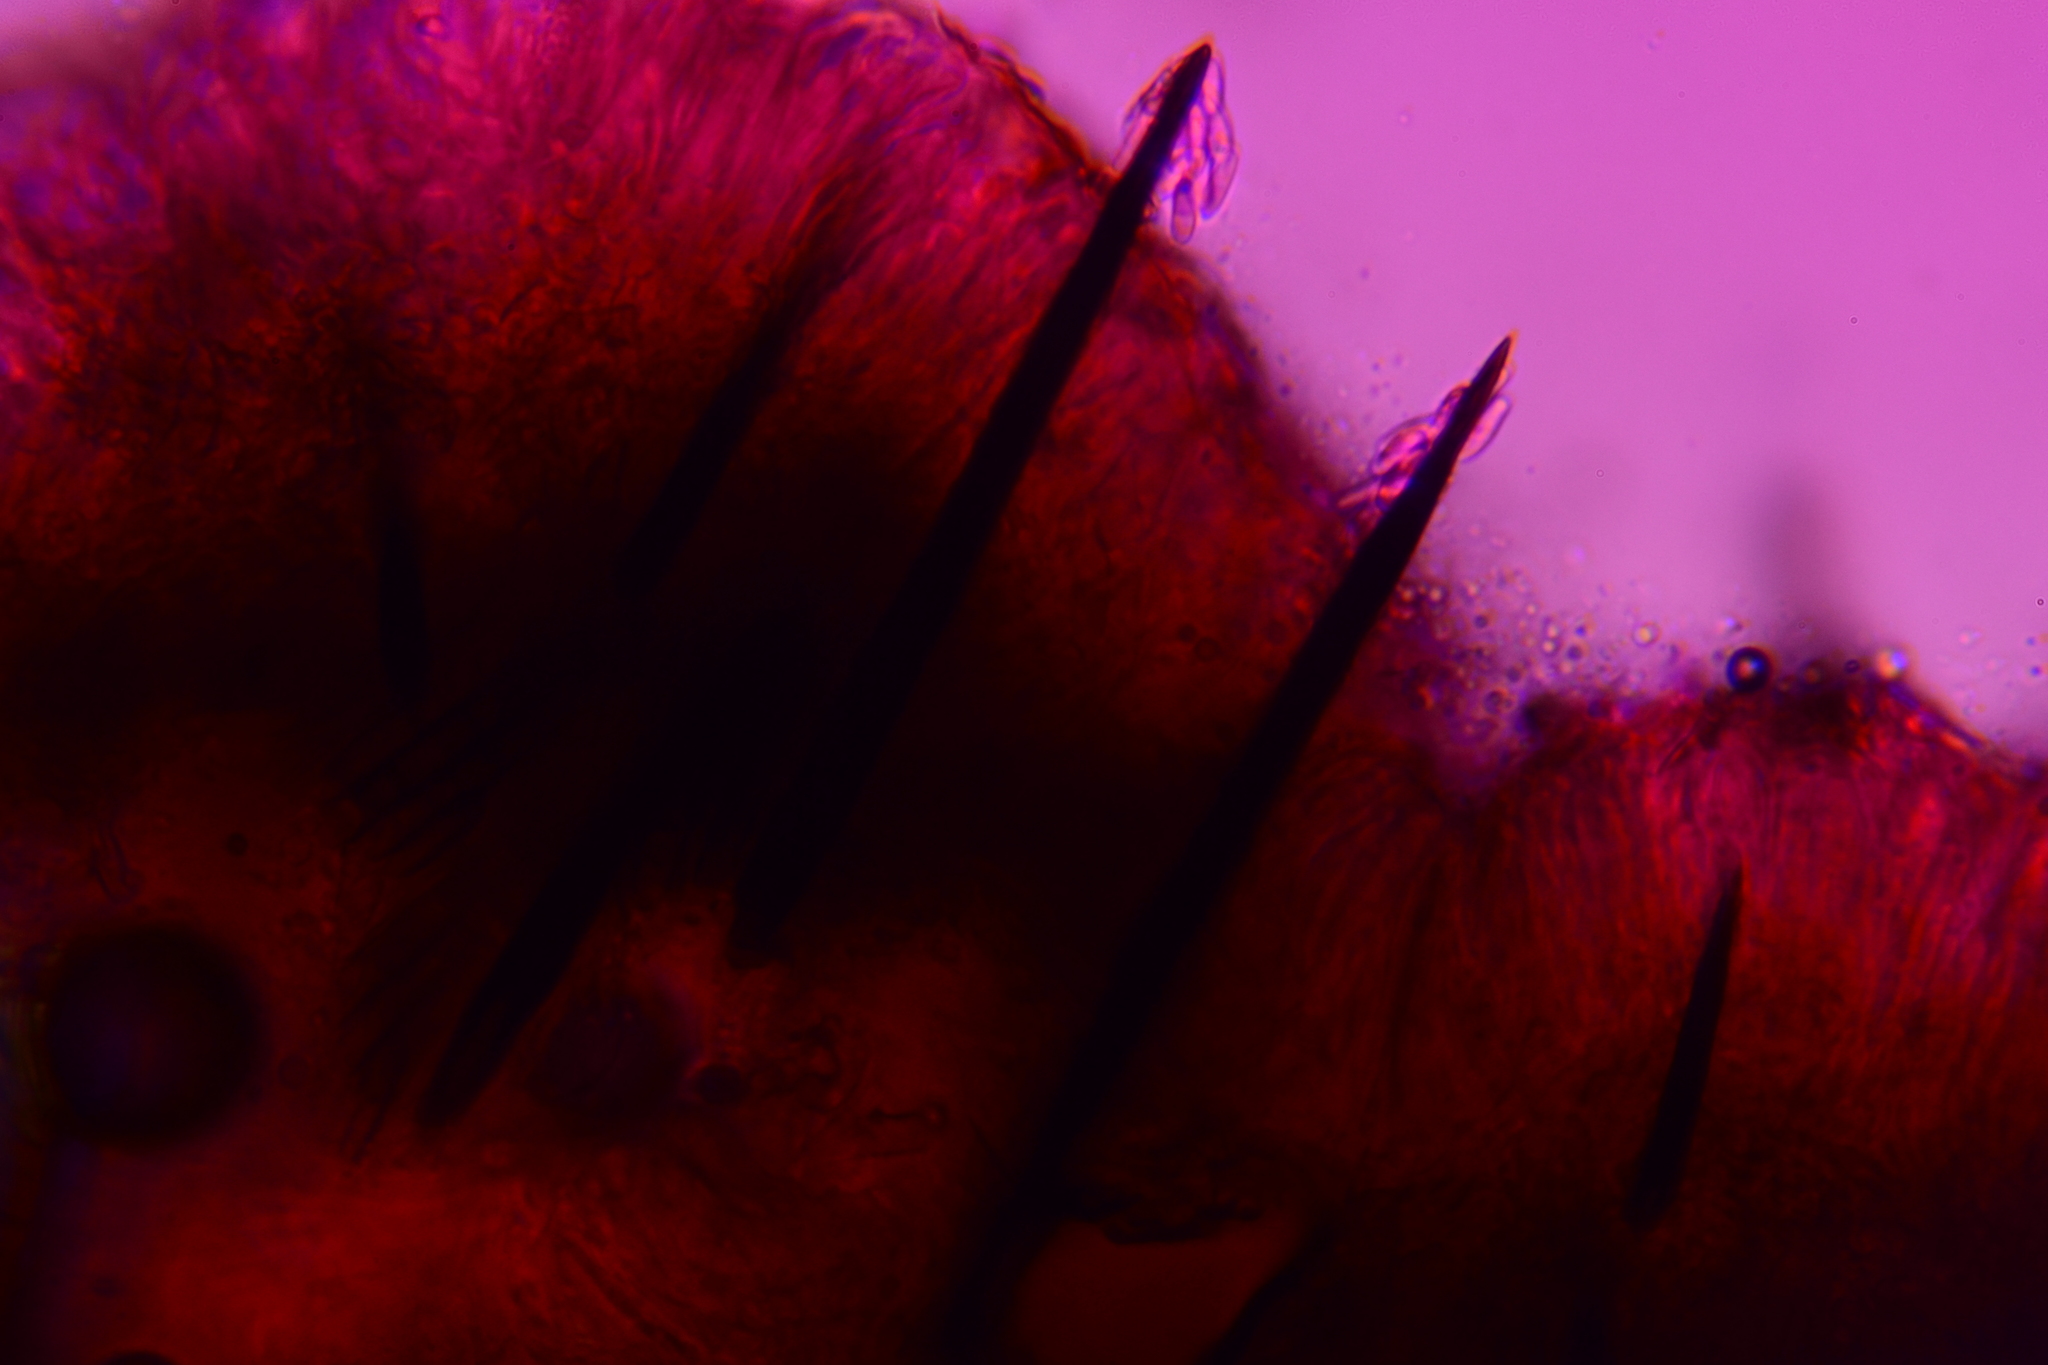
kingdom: Fungi
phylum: Ascomycota
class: Geoglossomycetes
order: Geoglossales
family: Geoglossaceae
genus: Trichoglossum
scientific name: Trichoglossum farlowii
